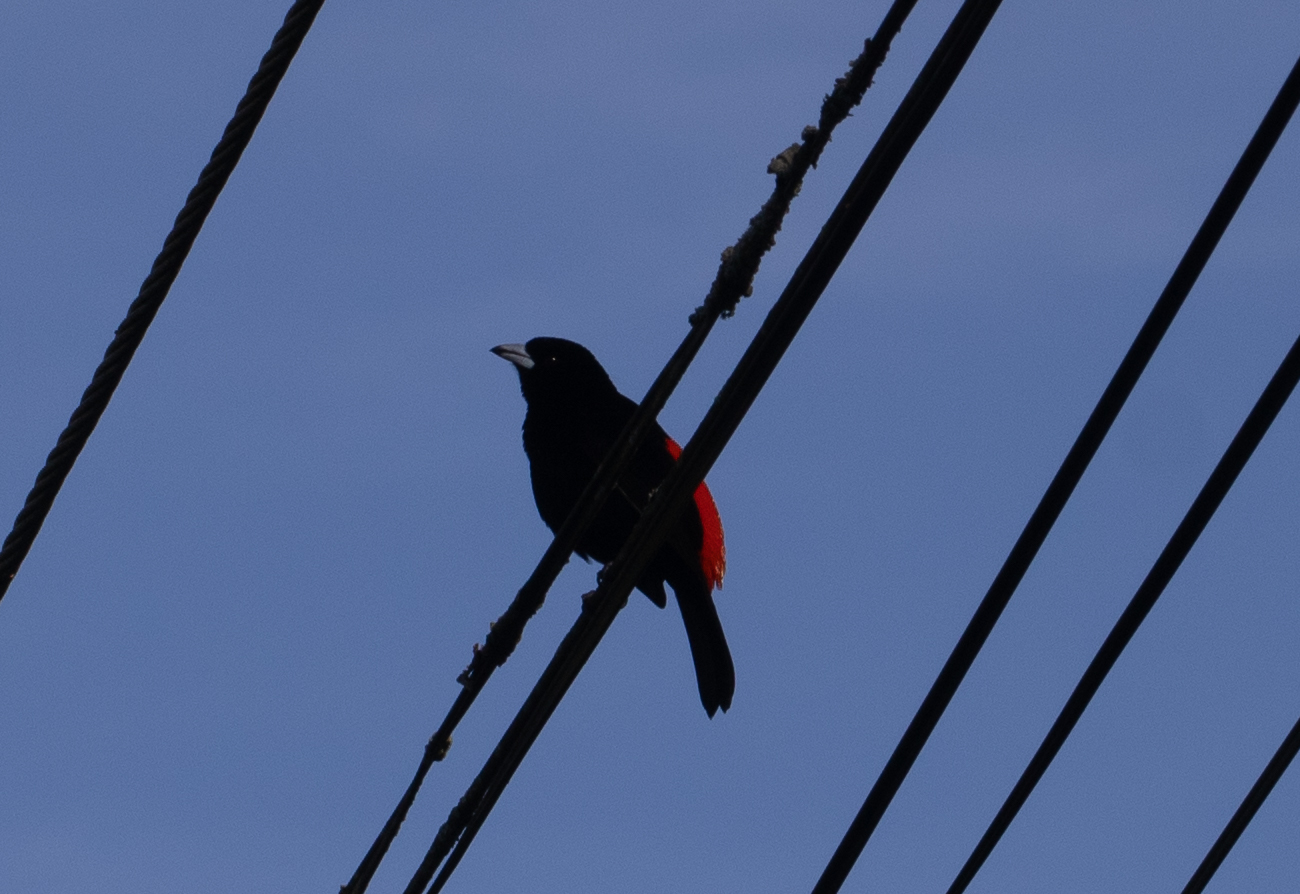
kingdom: Animalia
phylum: Chordata
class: Aves
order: Passeriformes
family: Thraupidae
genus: Ramphocelus
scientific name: Ramphocelus passerinii
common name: Passerini's tanager
